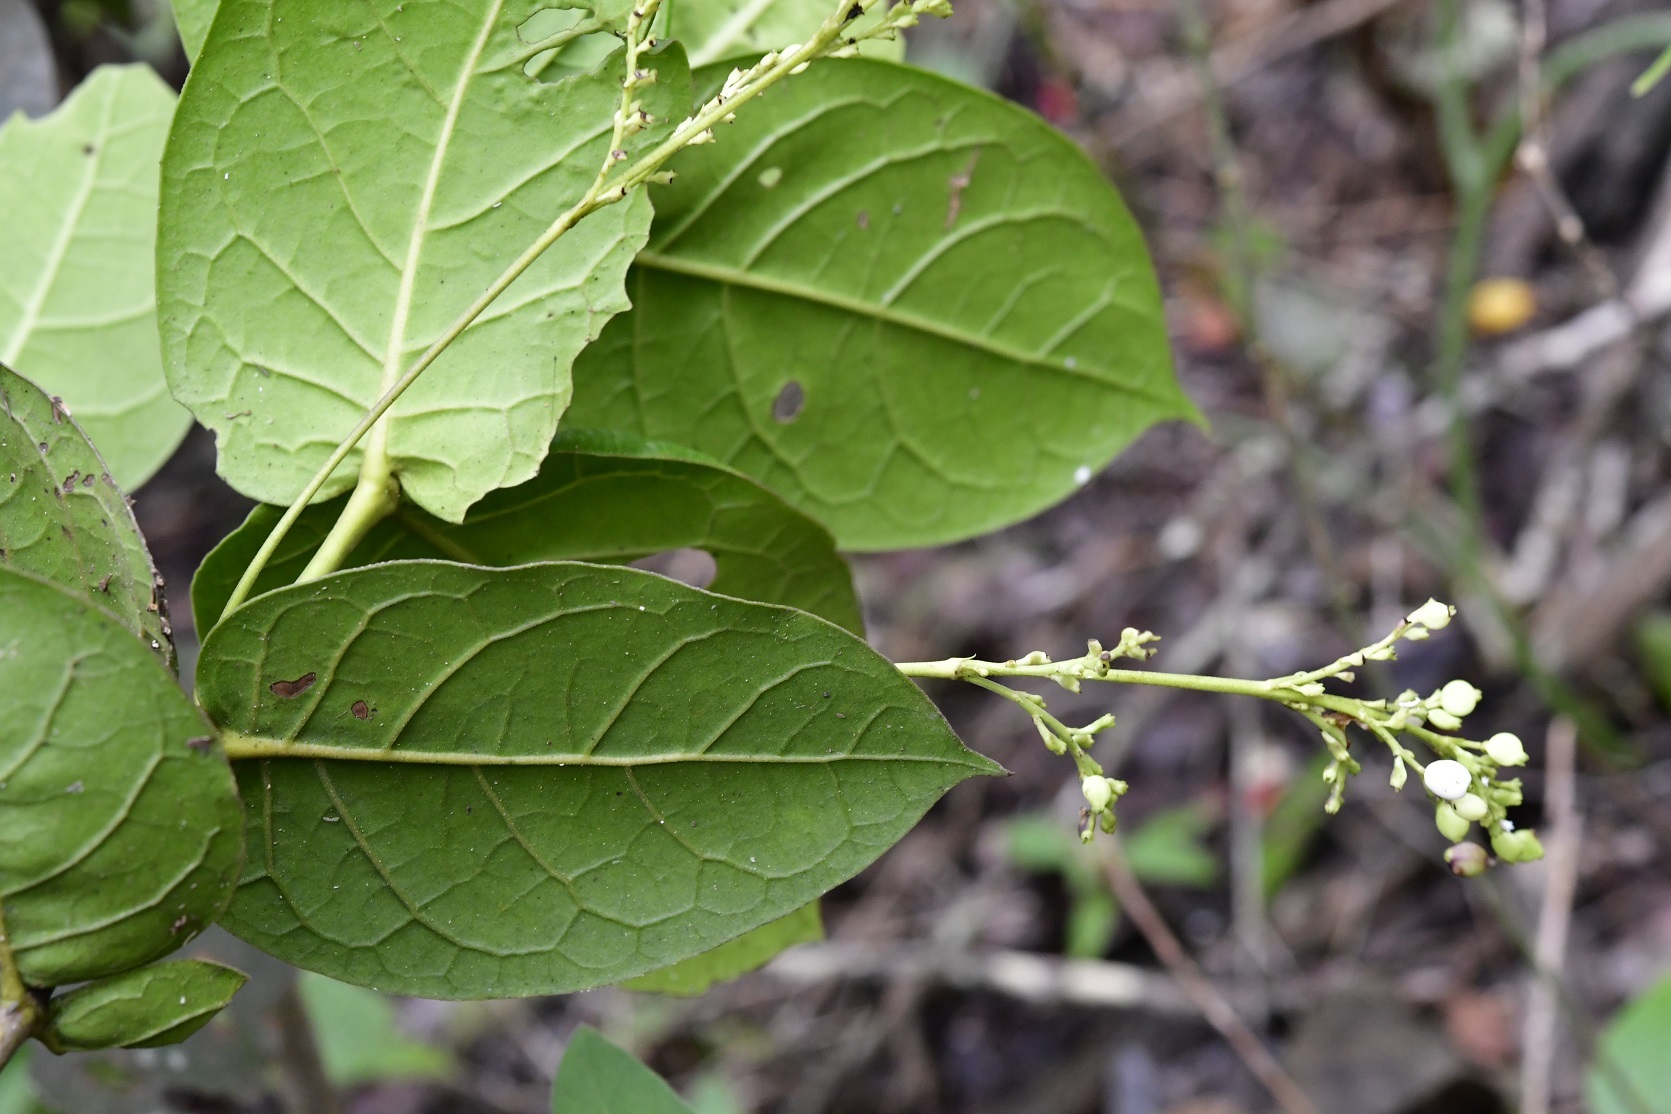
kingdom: Plantae
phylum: Tracheophyta
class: Magnoliopsida
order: Gentianales
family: Rubiaceae
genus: Chiococca
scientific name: Chiococca sessilifolia
